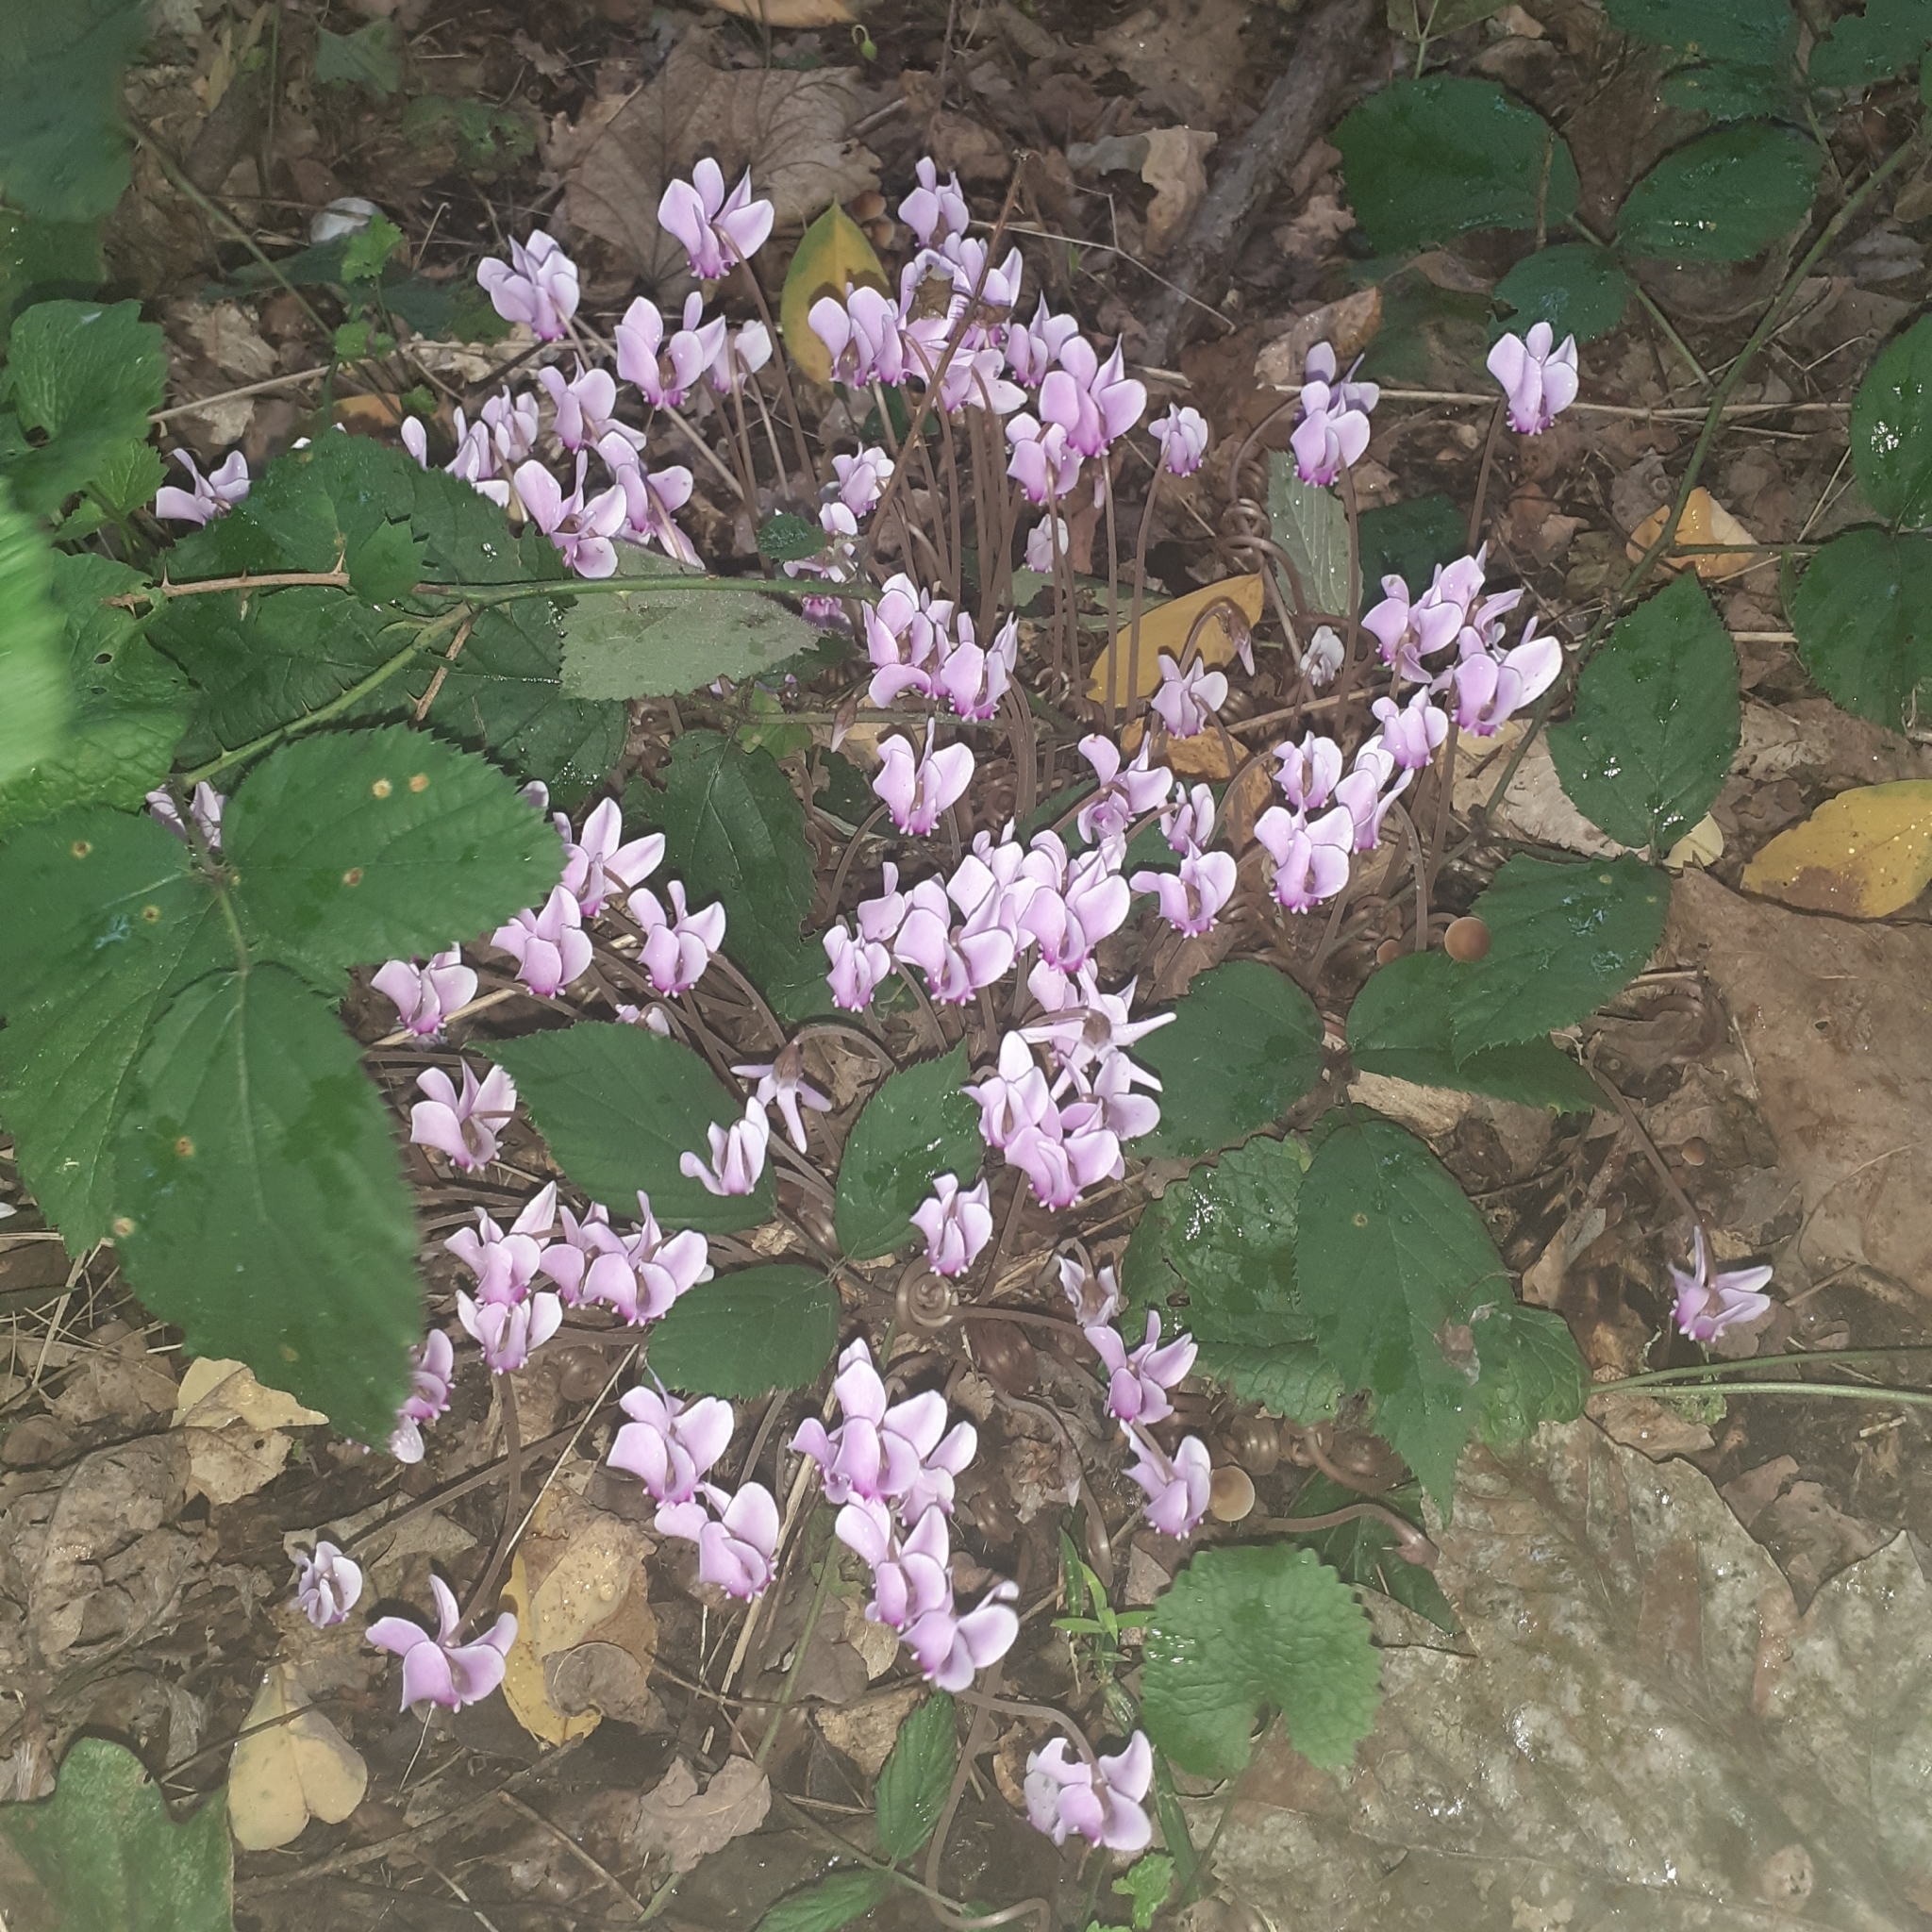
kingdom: Plantae
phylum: Tracheophyta
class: Magnoliopsida
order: Ericales
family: Primulaceae
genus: Cyclamen
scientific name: Cyclamen hederifolium
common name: Sowbread
